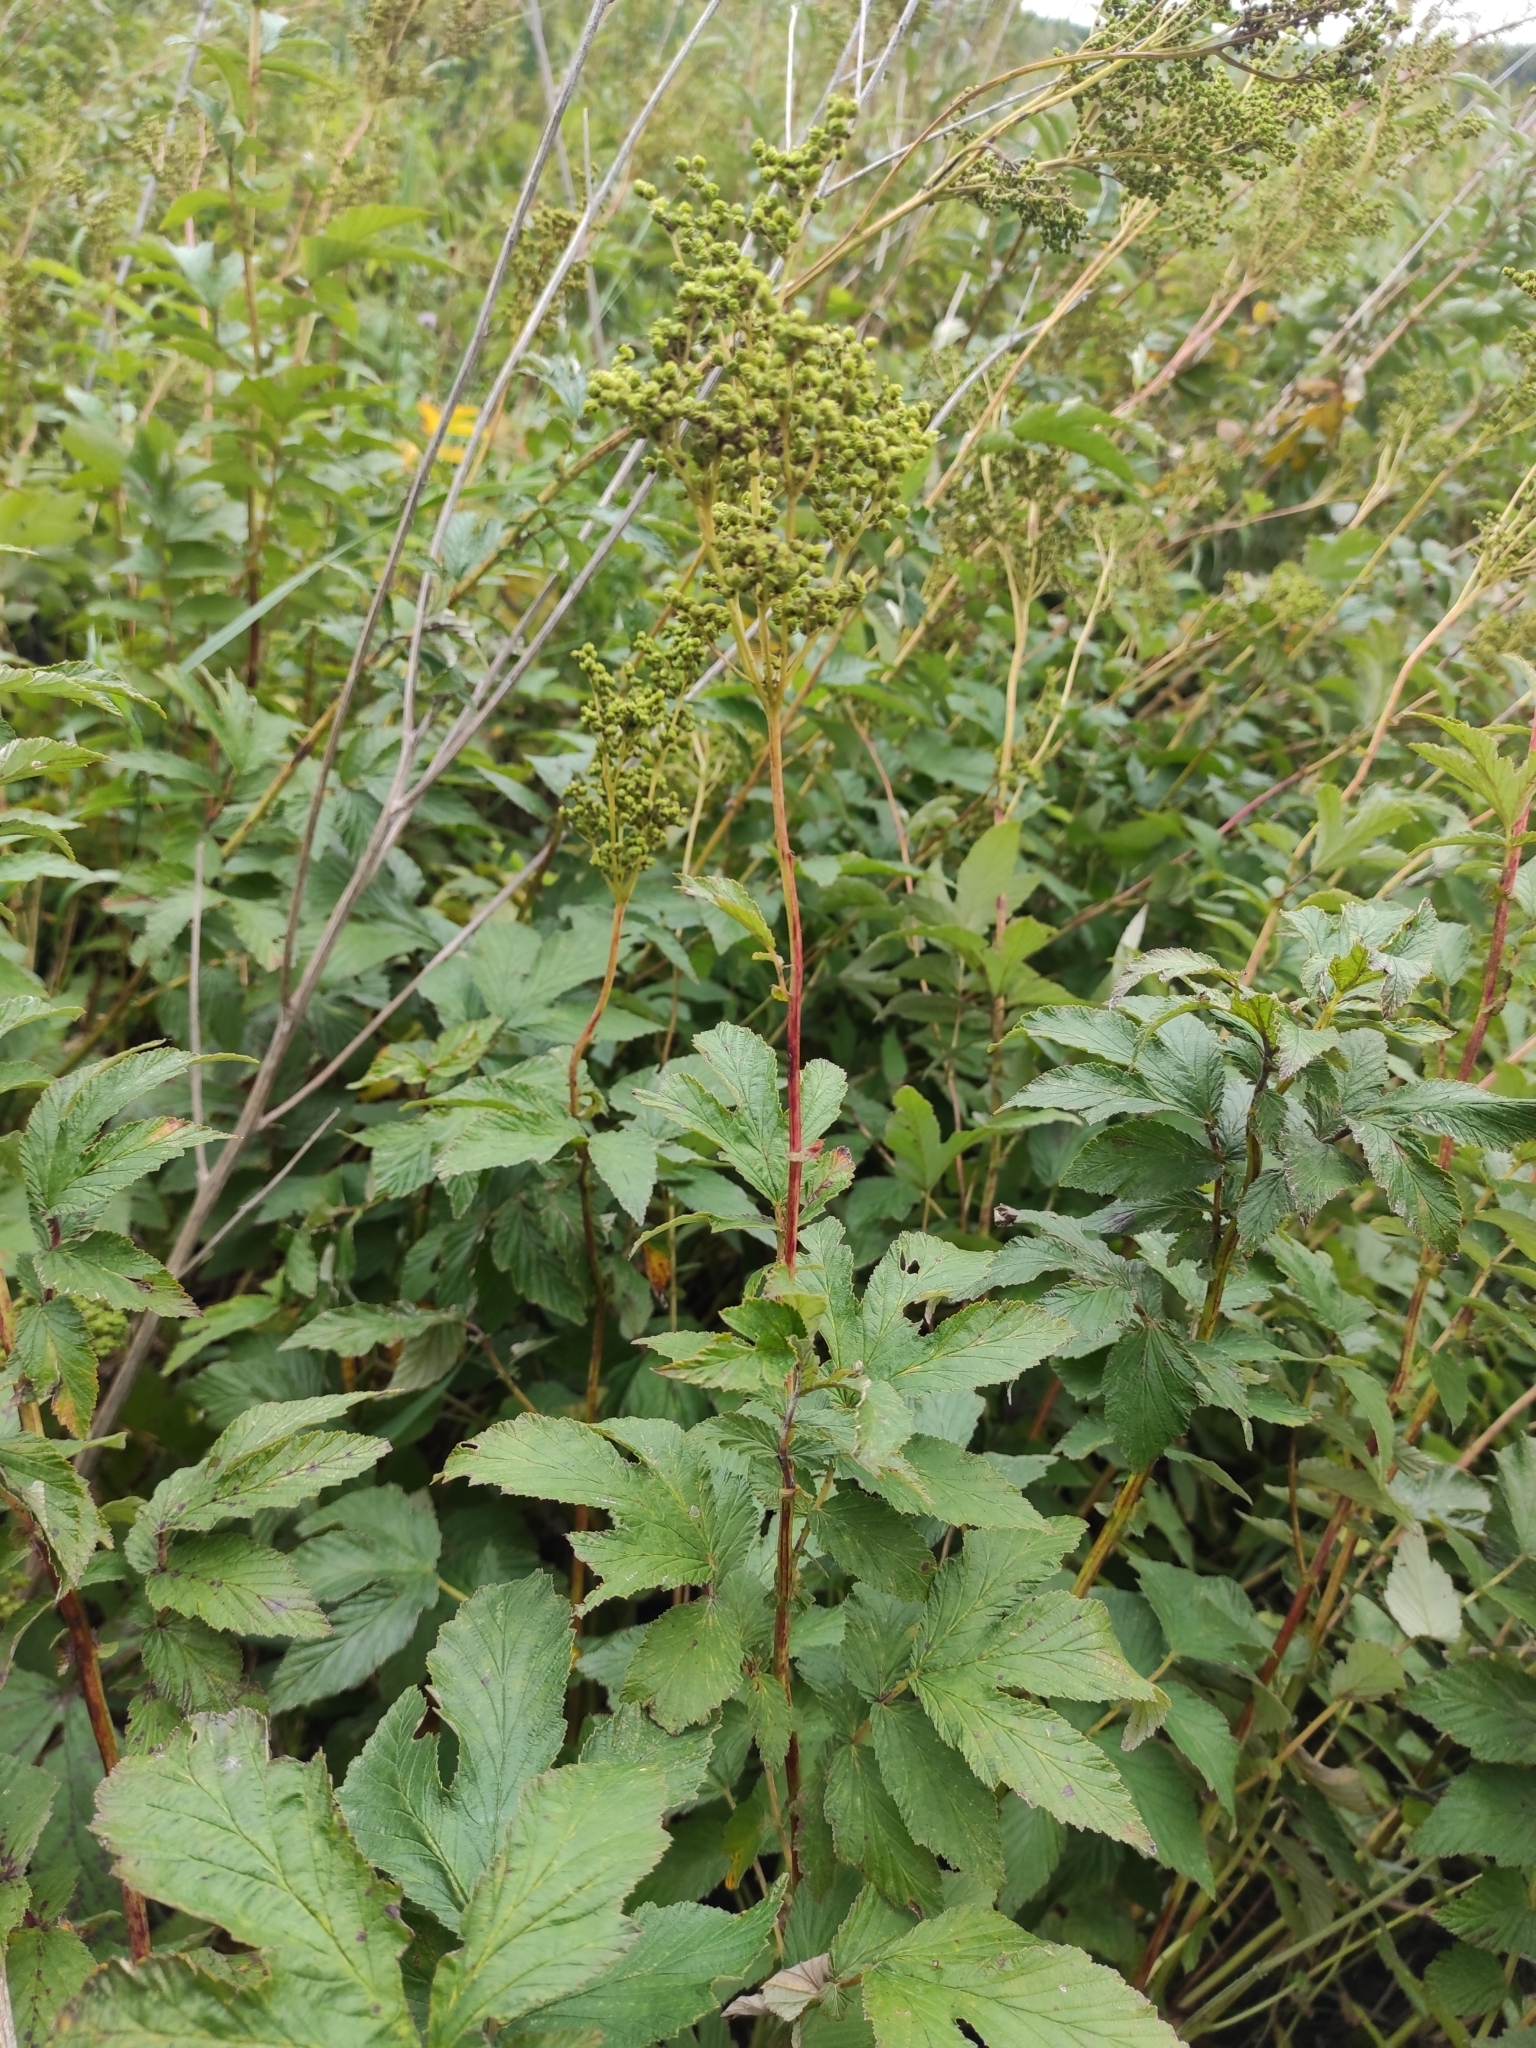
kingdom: Plantae
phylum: Tracheophyta
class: Magnoliopsida
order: Rosales
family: Rosaceae
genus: Filipendula
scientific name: Filipendula ulmaria
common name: Meadowsweet
